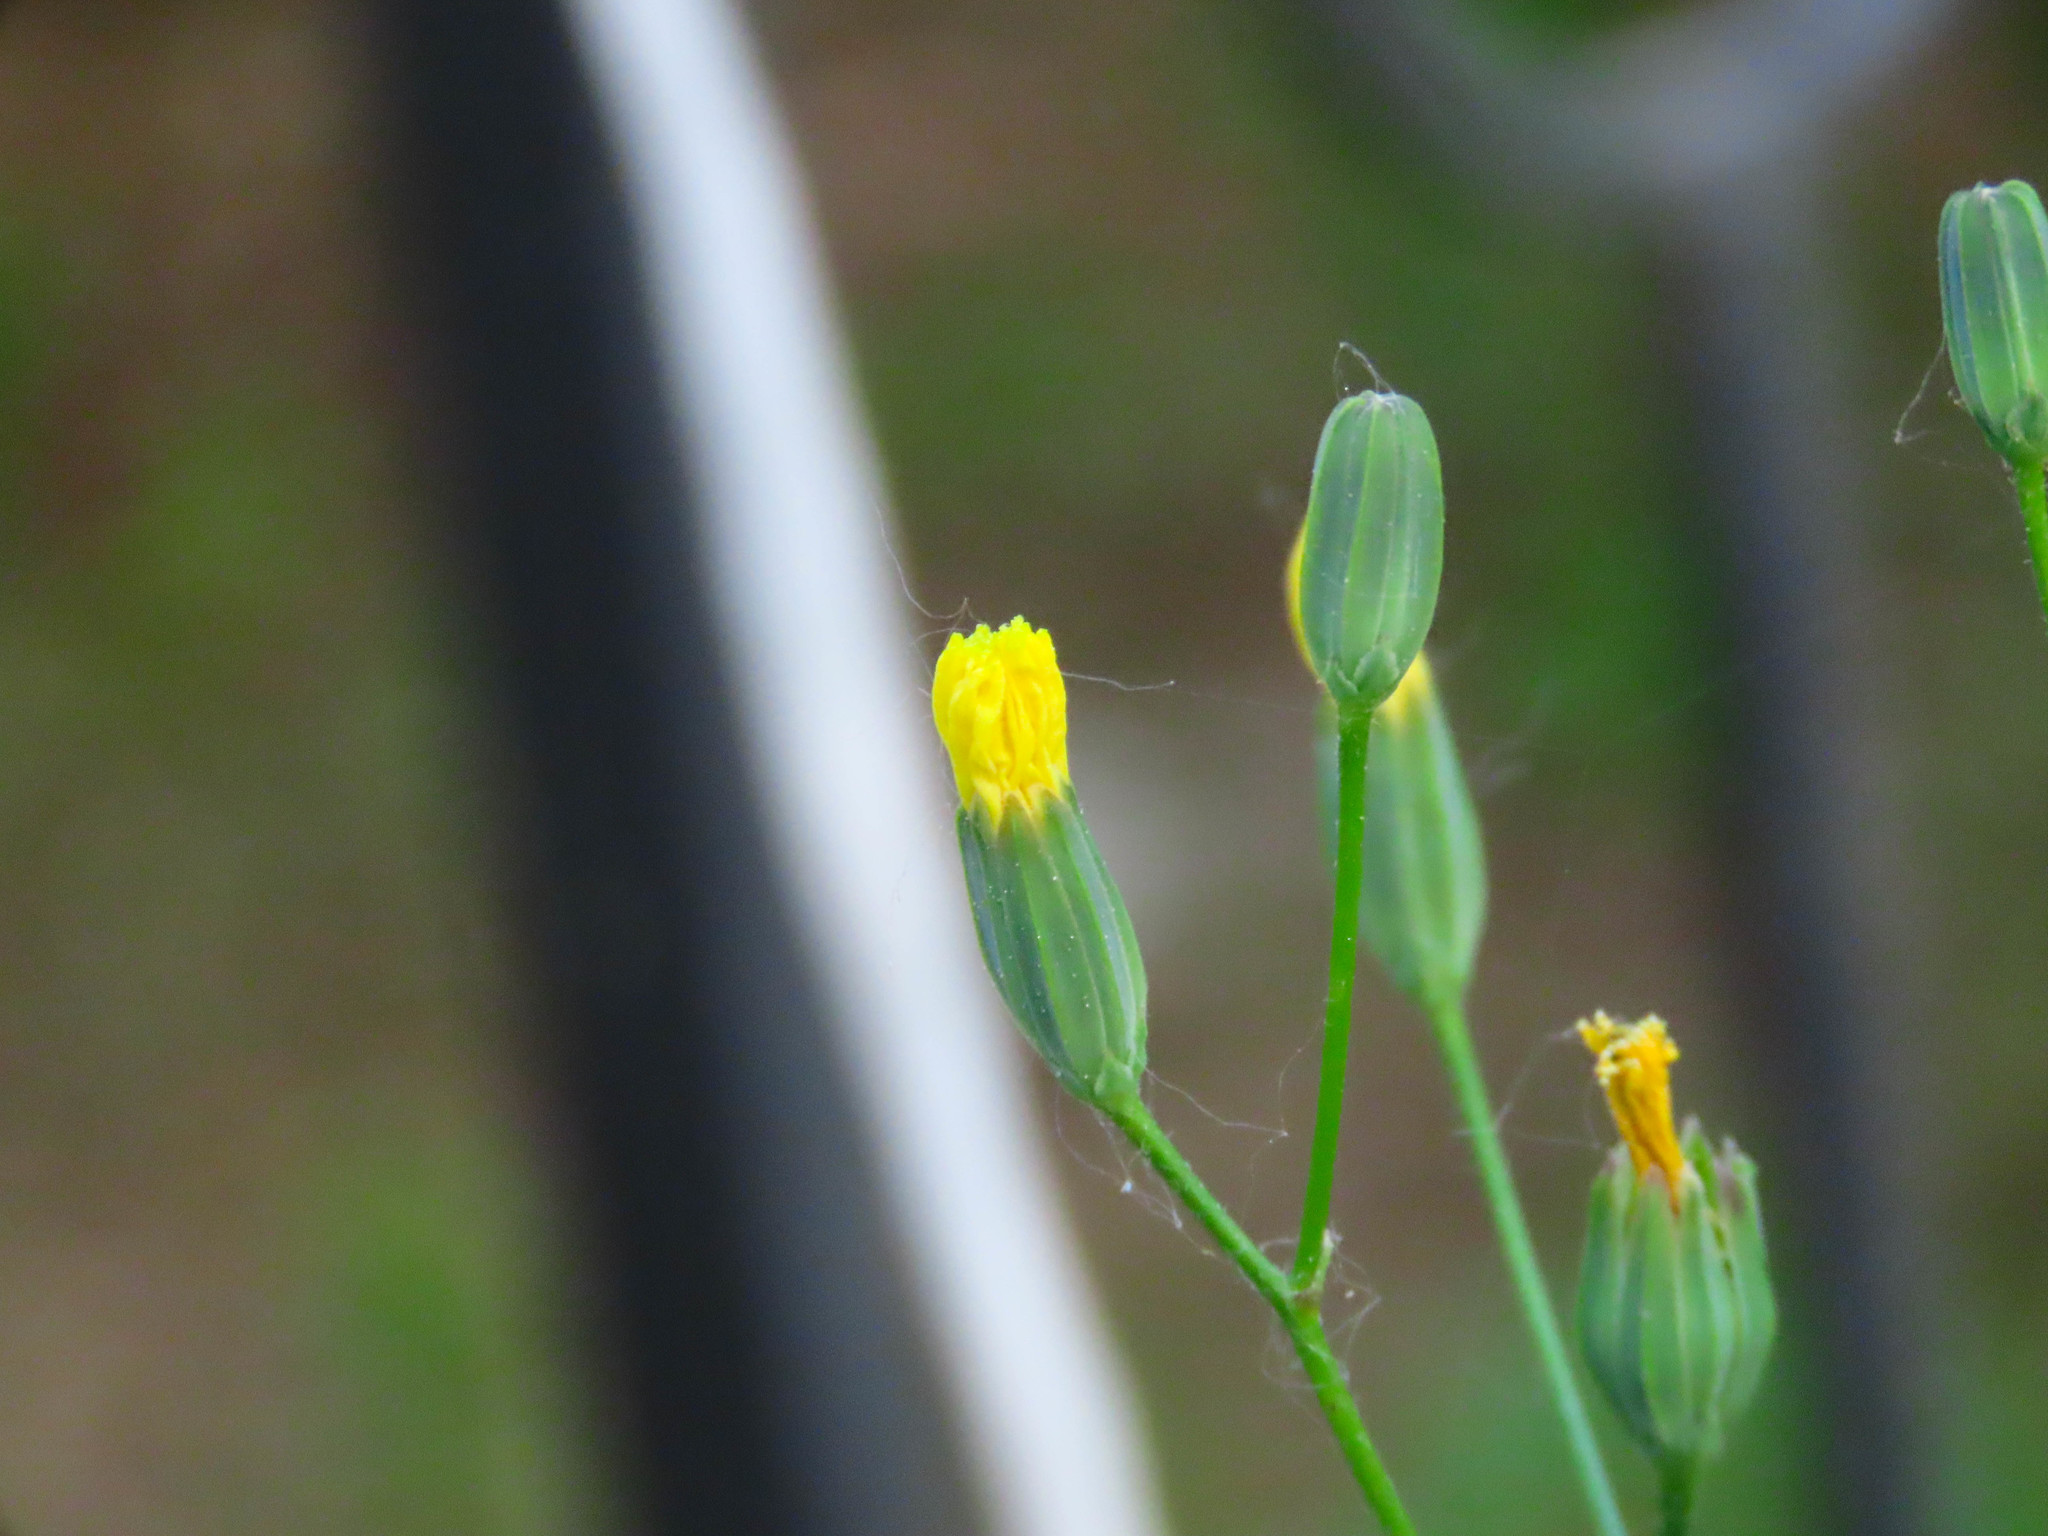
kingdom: Plantae
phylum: Tracheophyta
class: Magnoliopsida
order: Asterales
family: Asteraceae
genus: Lapsana
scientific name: Lapsana communis
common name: Nipplewort
